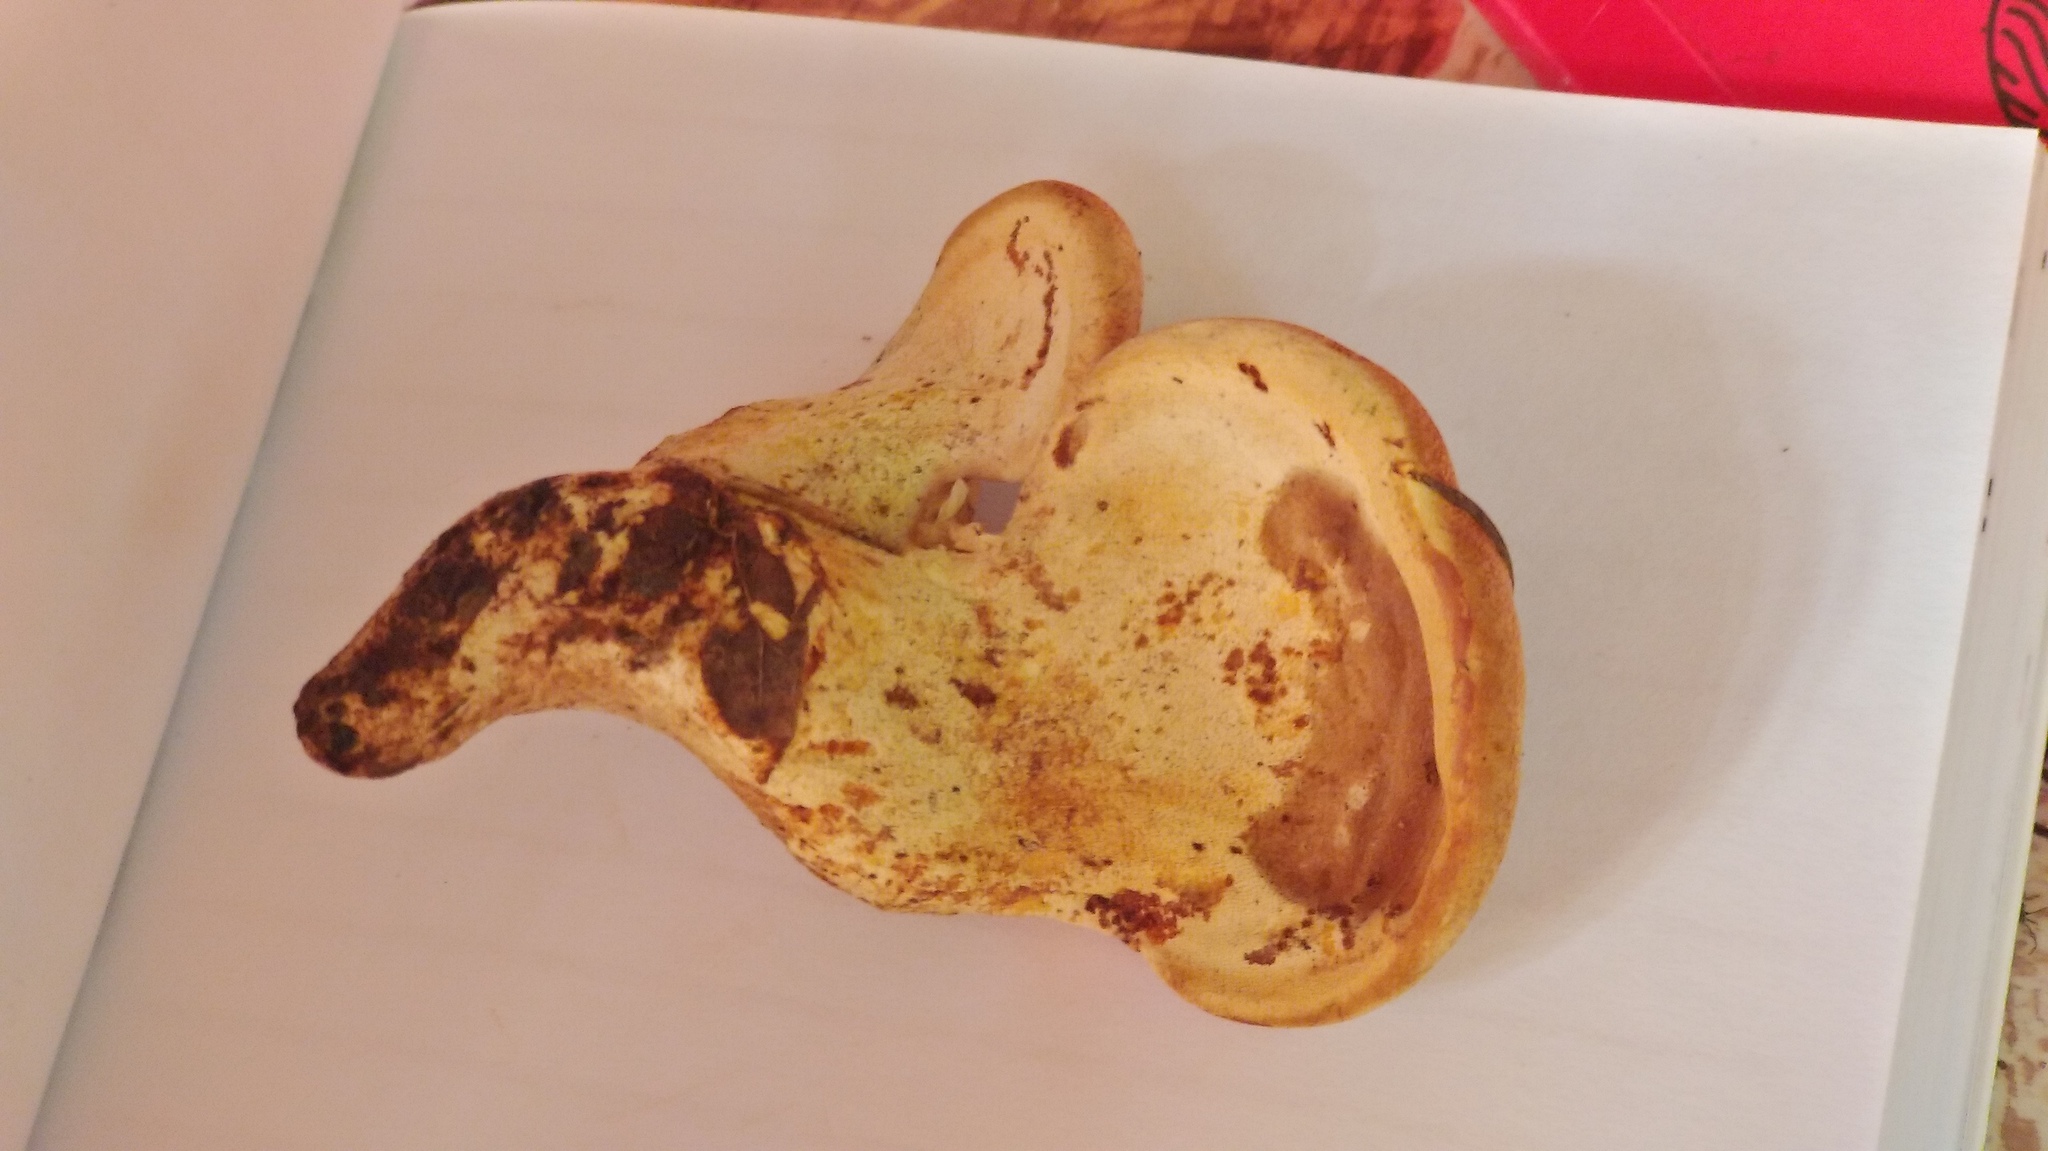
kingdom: Fungi
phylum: Basidiomycota
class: Agaricomycetes
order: Polyporales
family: Fomitopsidaceae
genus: Fomitopsis
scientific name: Fomitopsis
